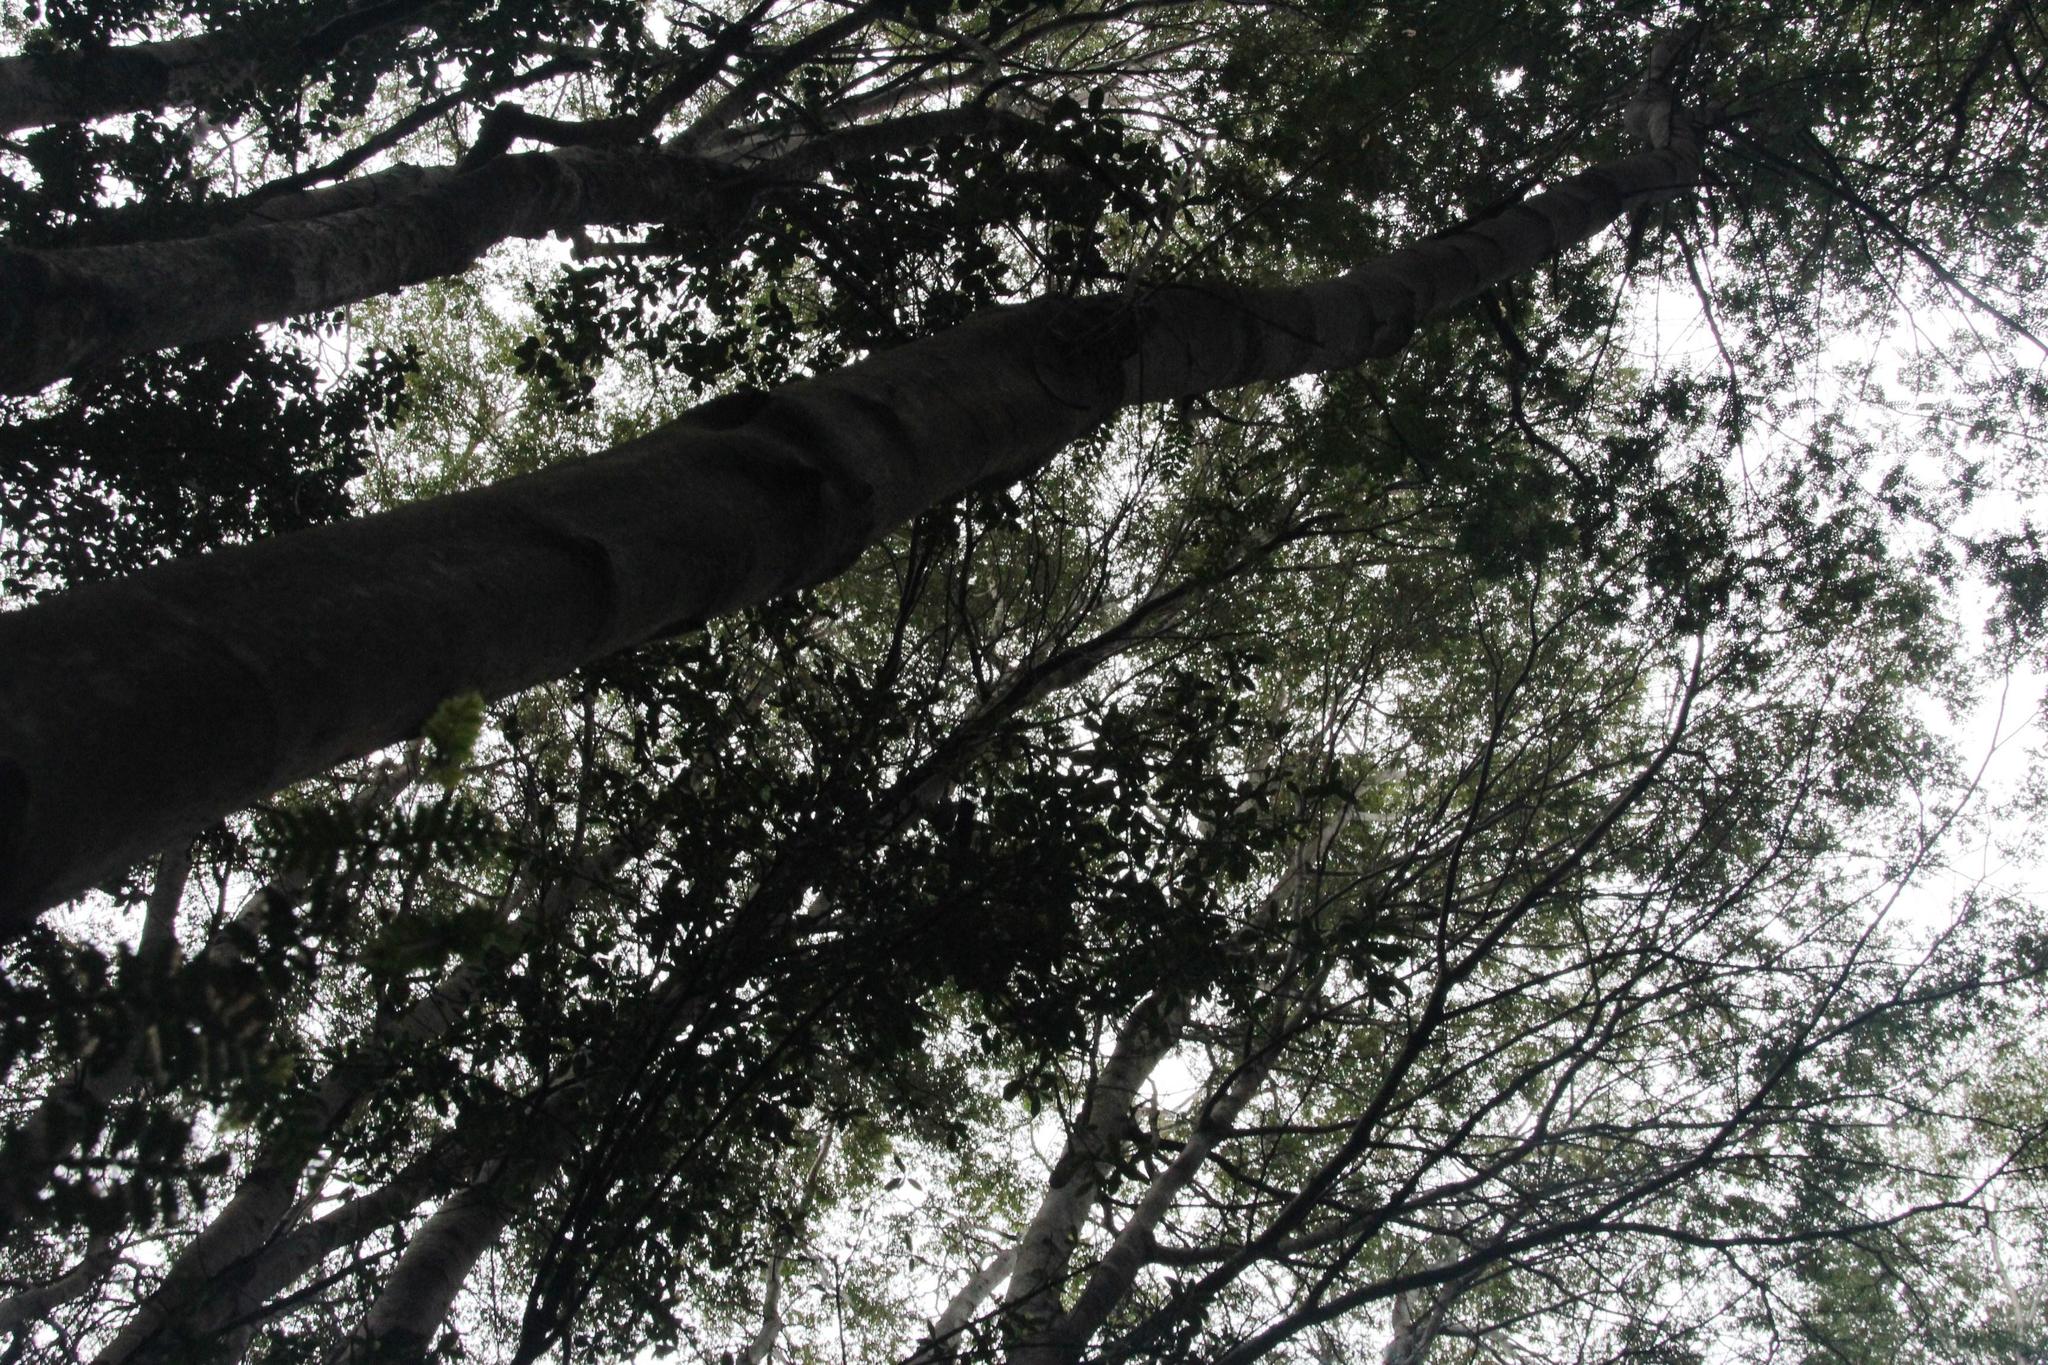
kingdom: Plantae
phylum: Tracheophyta
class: Magnoliopsida
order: Oxalidales
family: Cunoniaceae
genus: Weinmannia
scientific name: Weinmannia trichosperma
